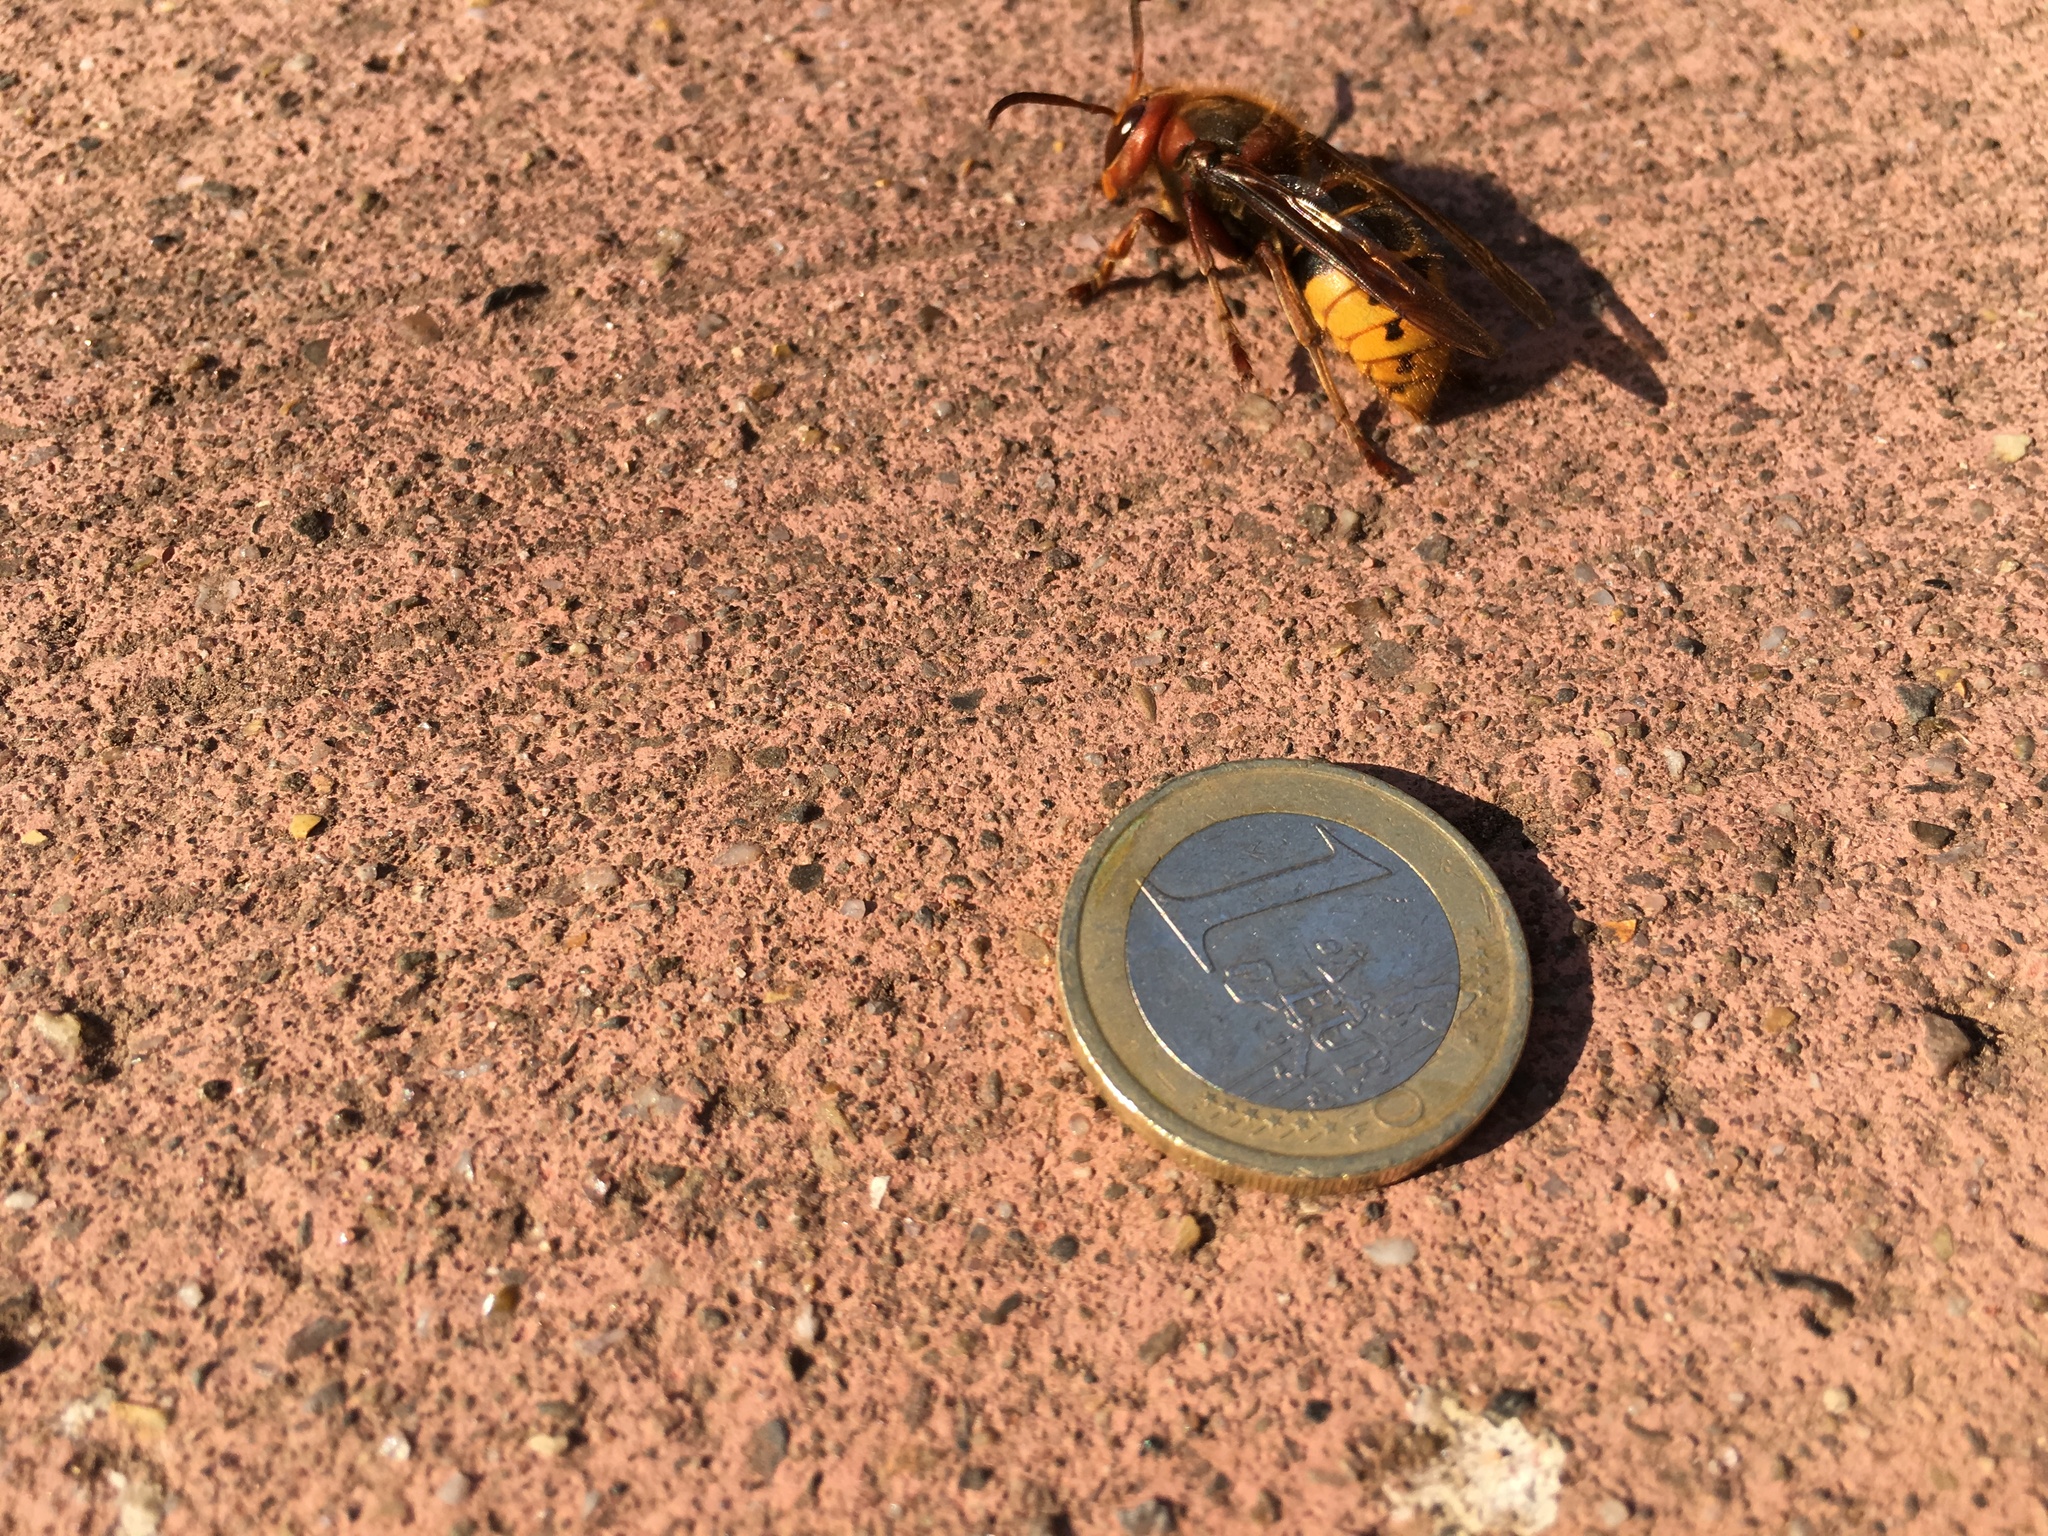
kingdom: Animalia
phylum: Arthropoda
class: Insecta
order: Hymenoptera
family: Vespidae
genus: Vespa
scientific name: Vespa crabro
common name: Hornet
